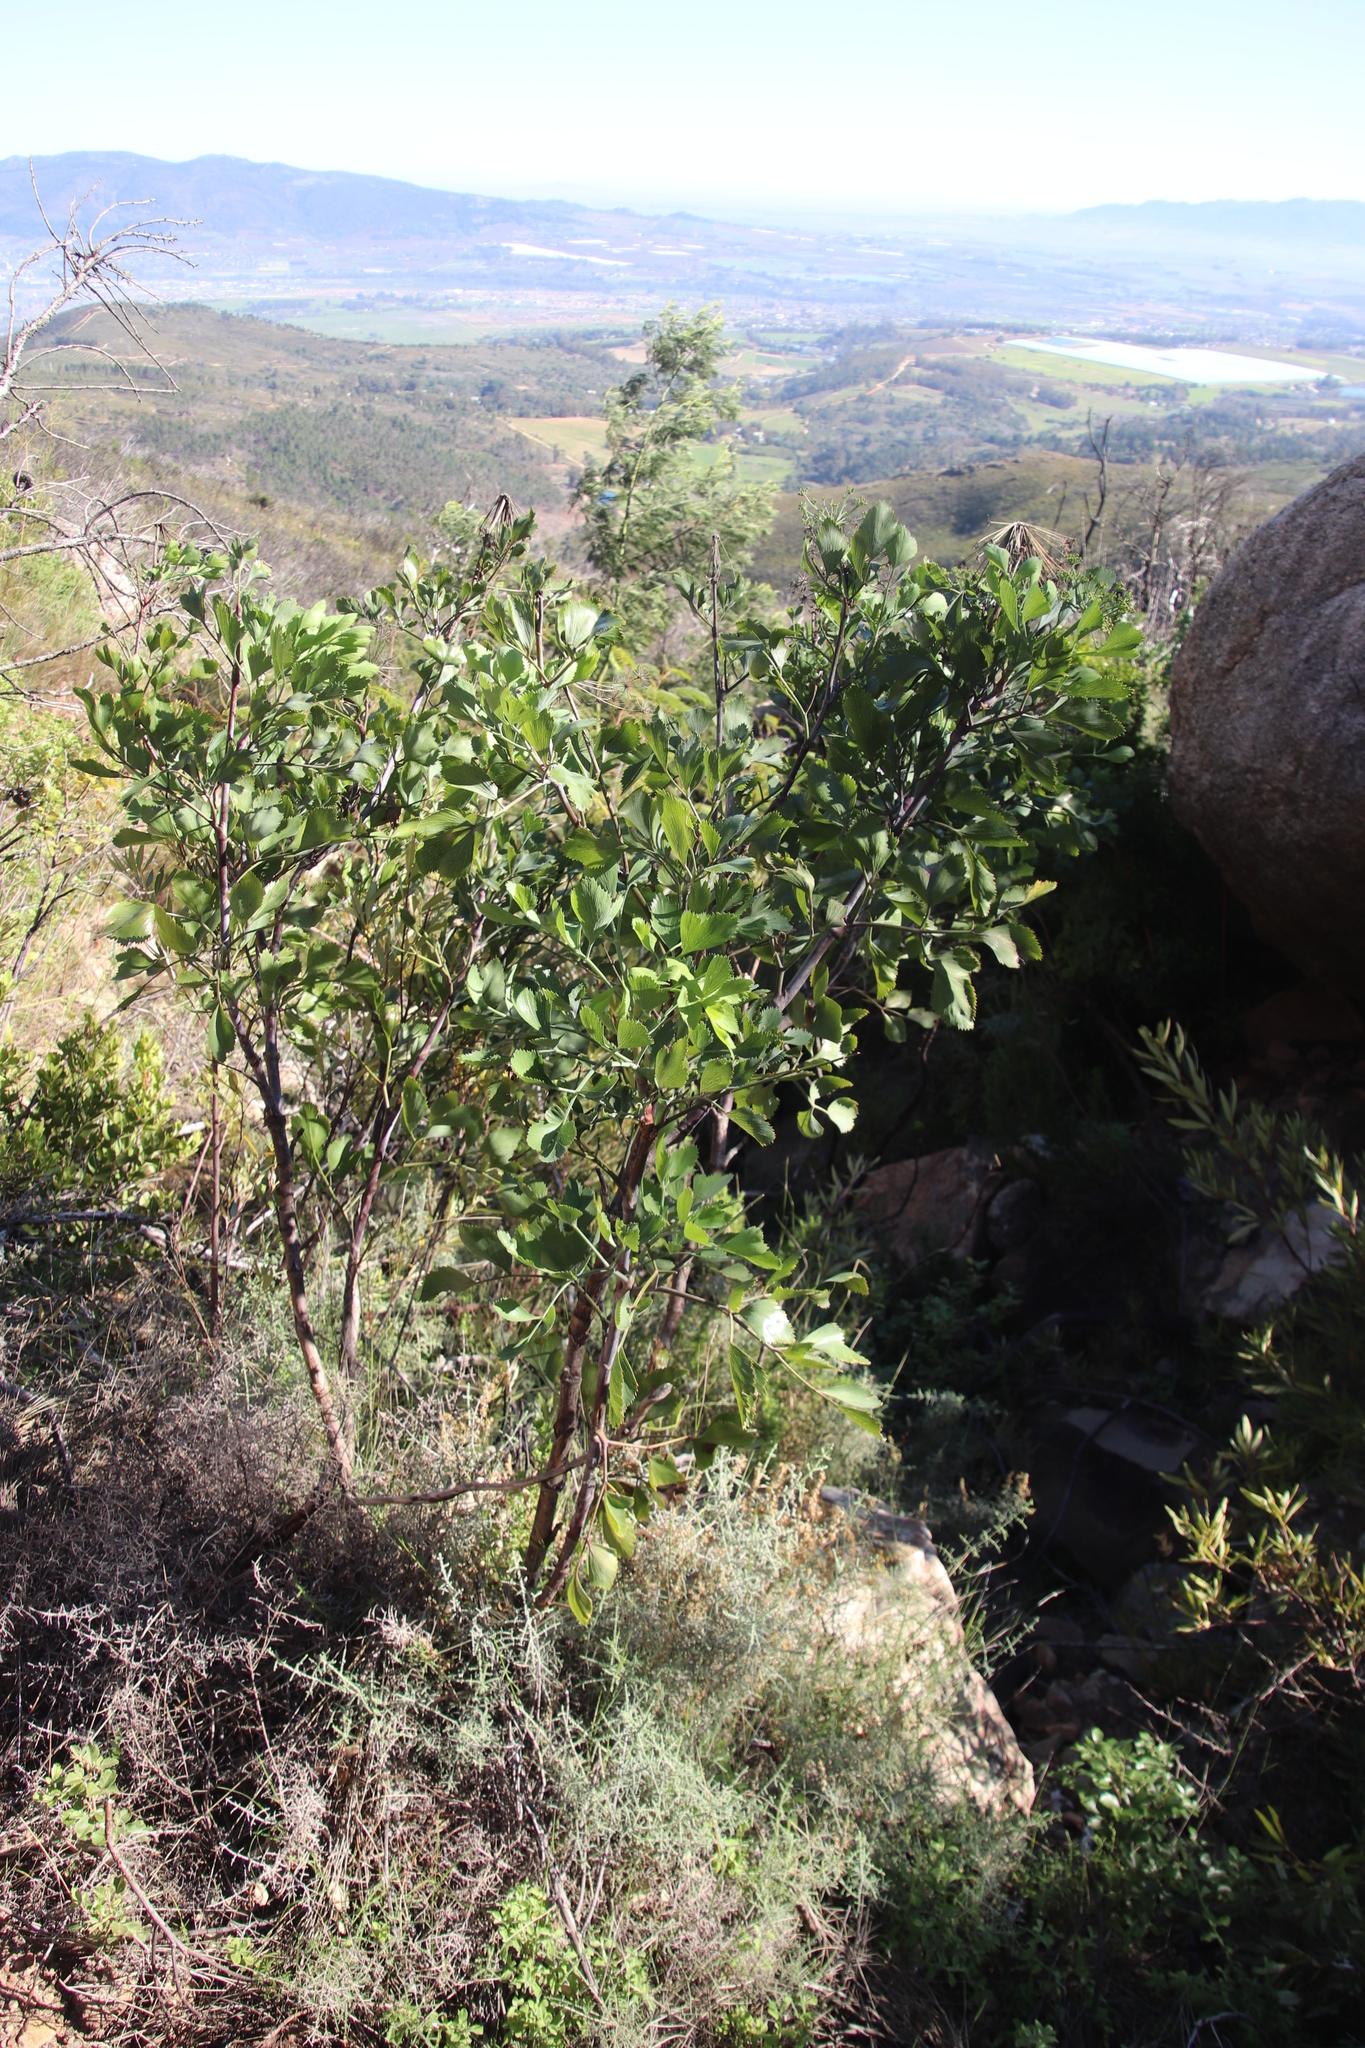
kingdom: Plantae
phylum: Tracheophyta
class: Magnoliopsida
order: Apiales
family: Apiaceae
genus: Notobubon
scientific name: Notobubon galbanum
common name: Blisterbush
